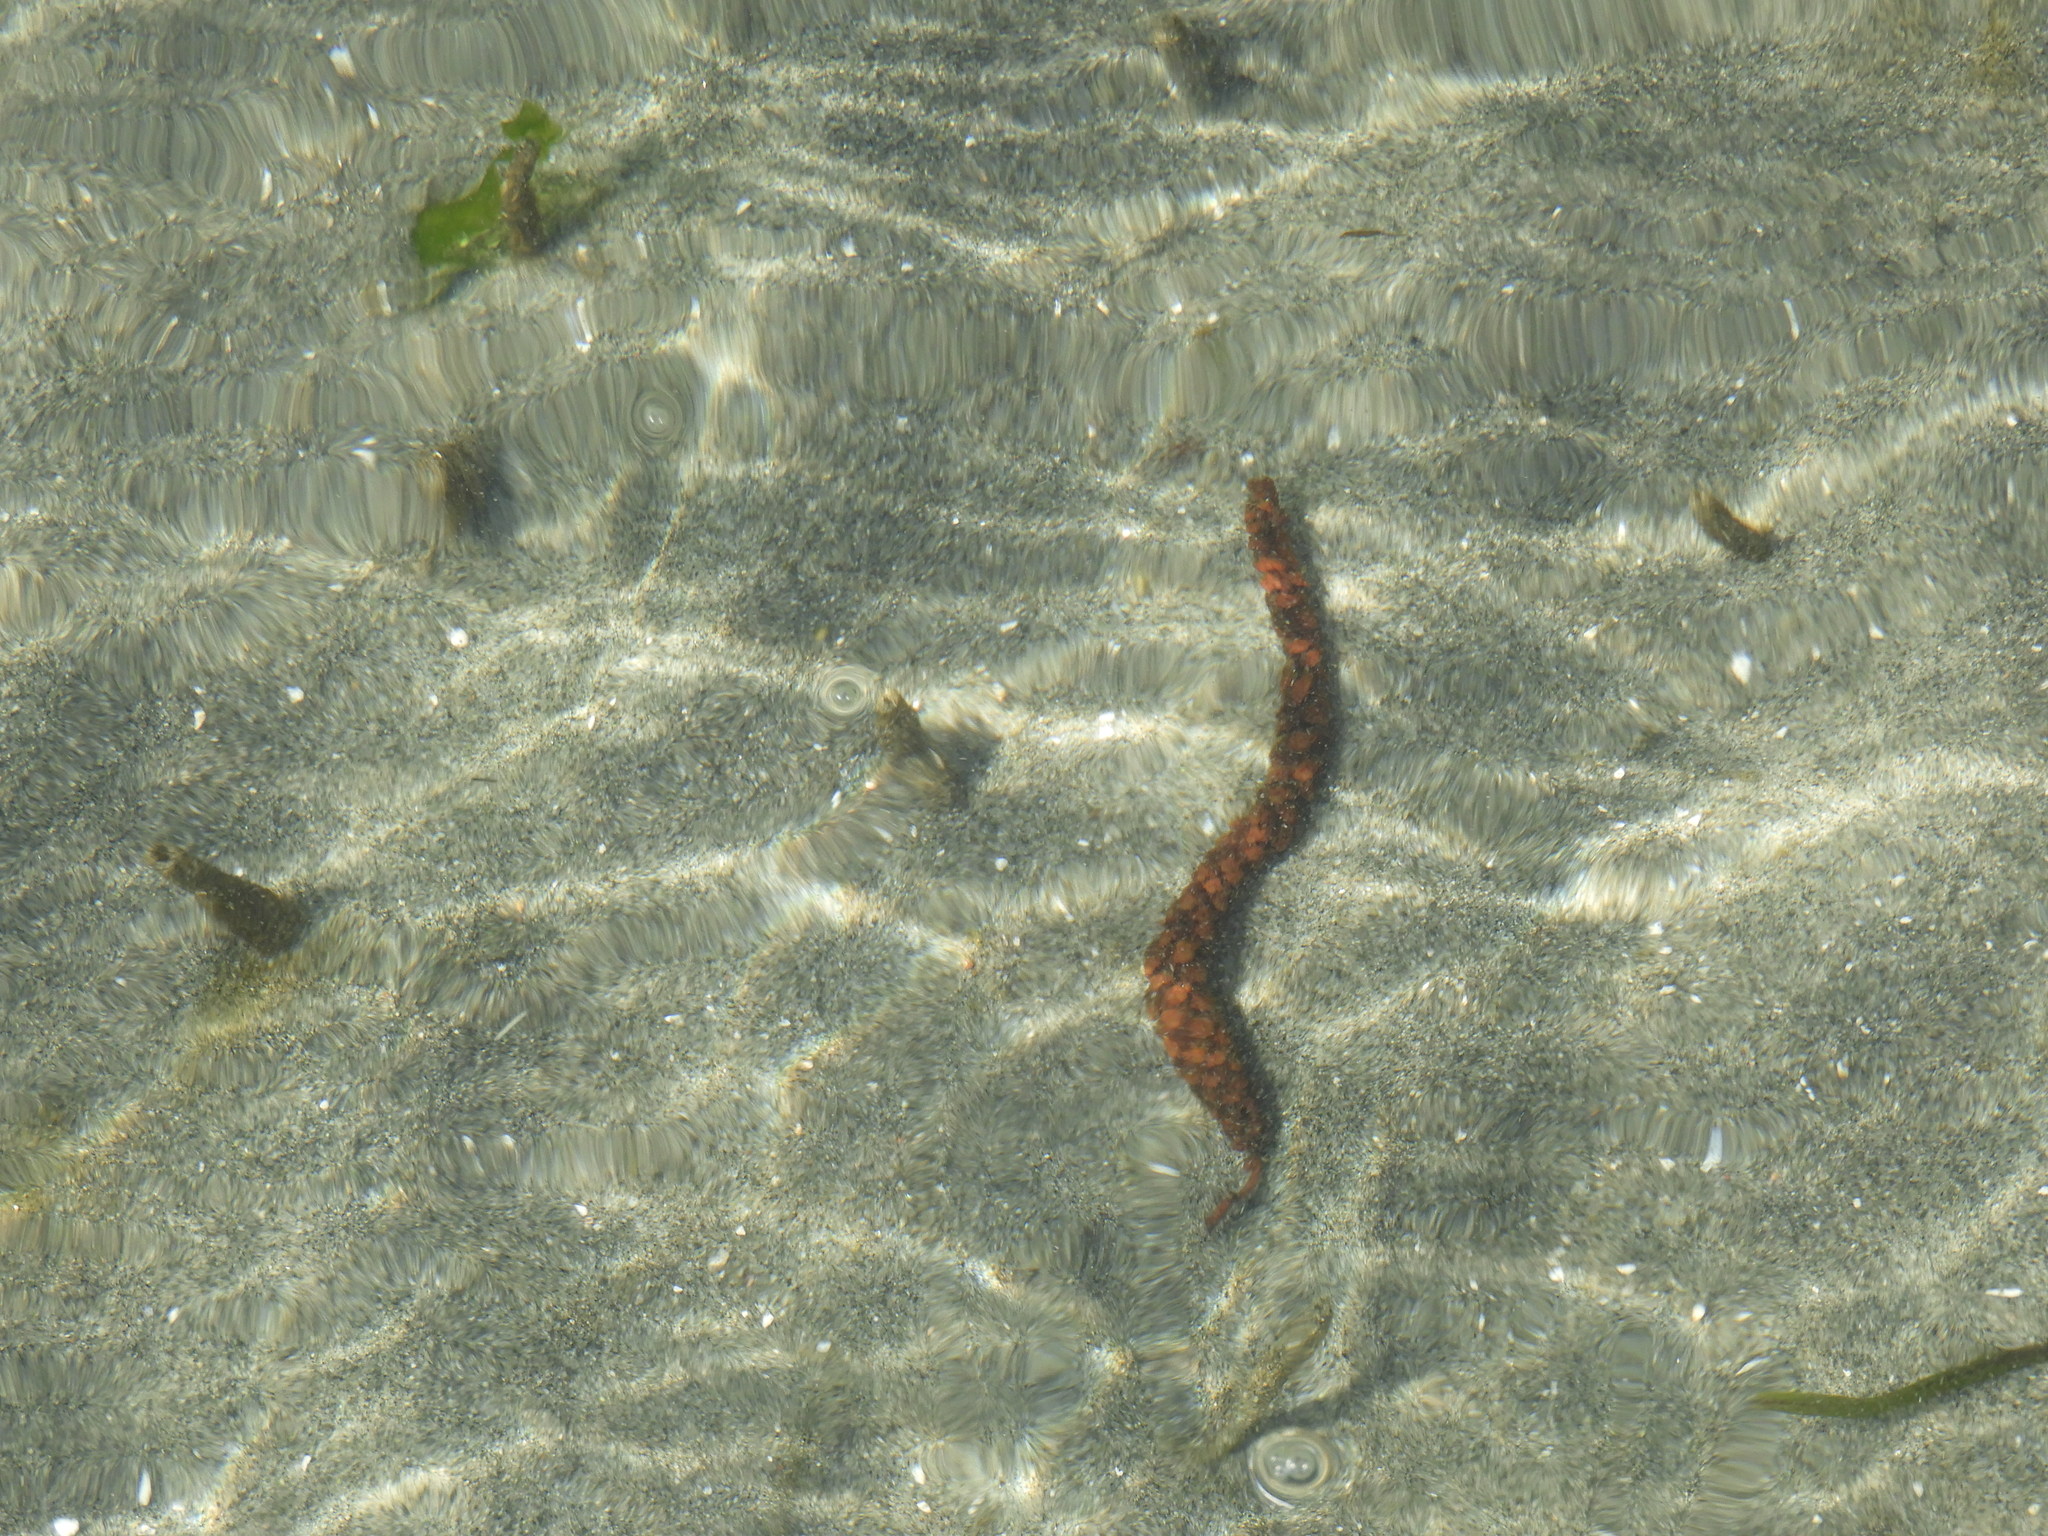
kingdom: Plantae
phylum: Tracheophyta
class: Magnoliopsida
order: Fagales
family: Betulaceae
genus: Alnus
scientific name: Alnus rubra
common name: Red alder
